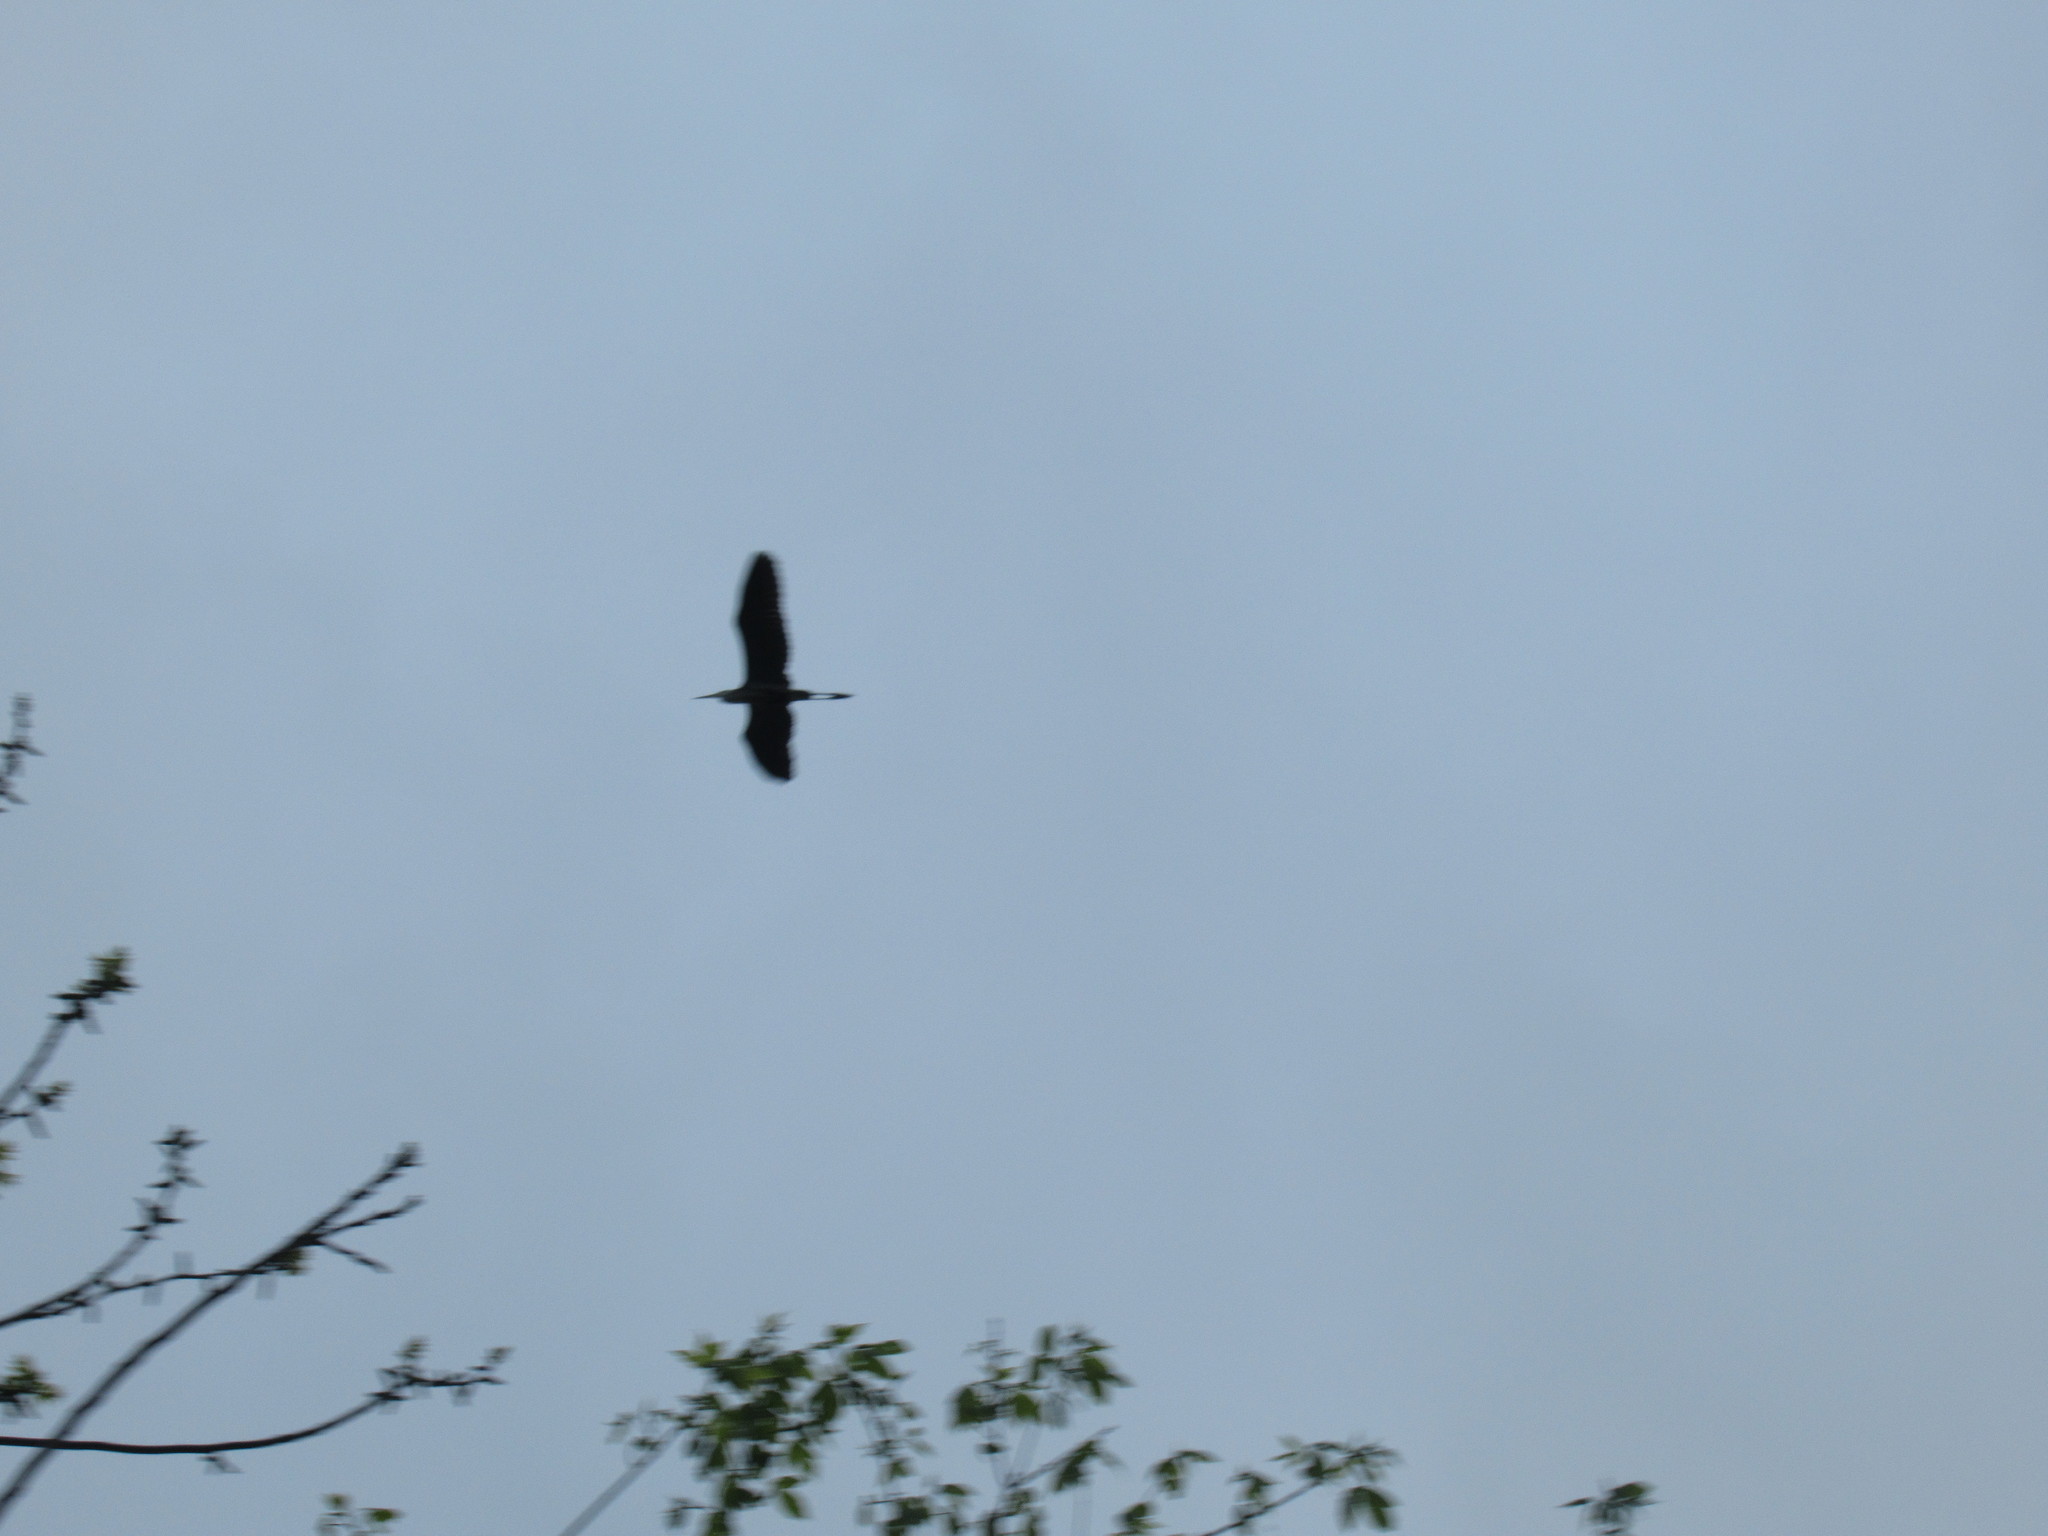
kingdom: Animalia
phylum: Chordata
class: Aves
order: Pelecaniformes
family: Ardeidae
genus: Ardea
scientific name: Ardea herodias
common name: Great blue heron
